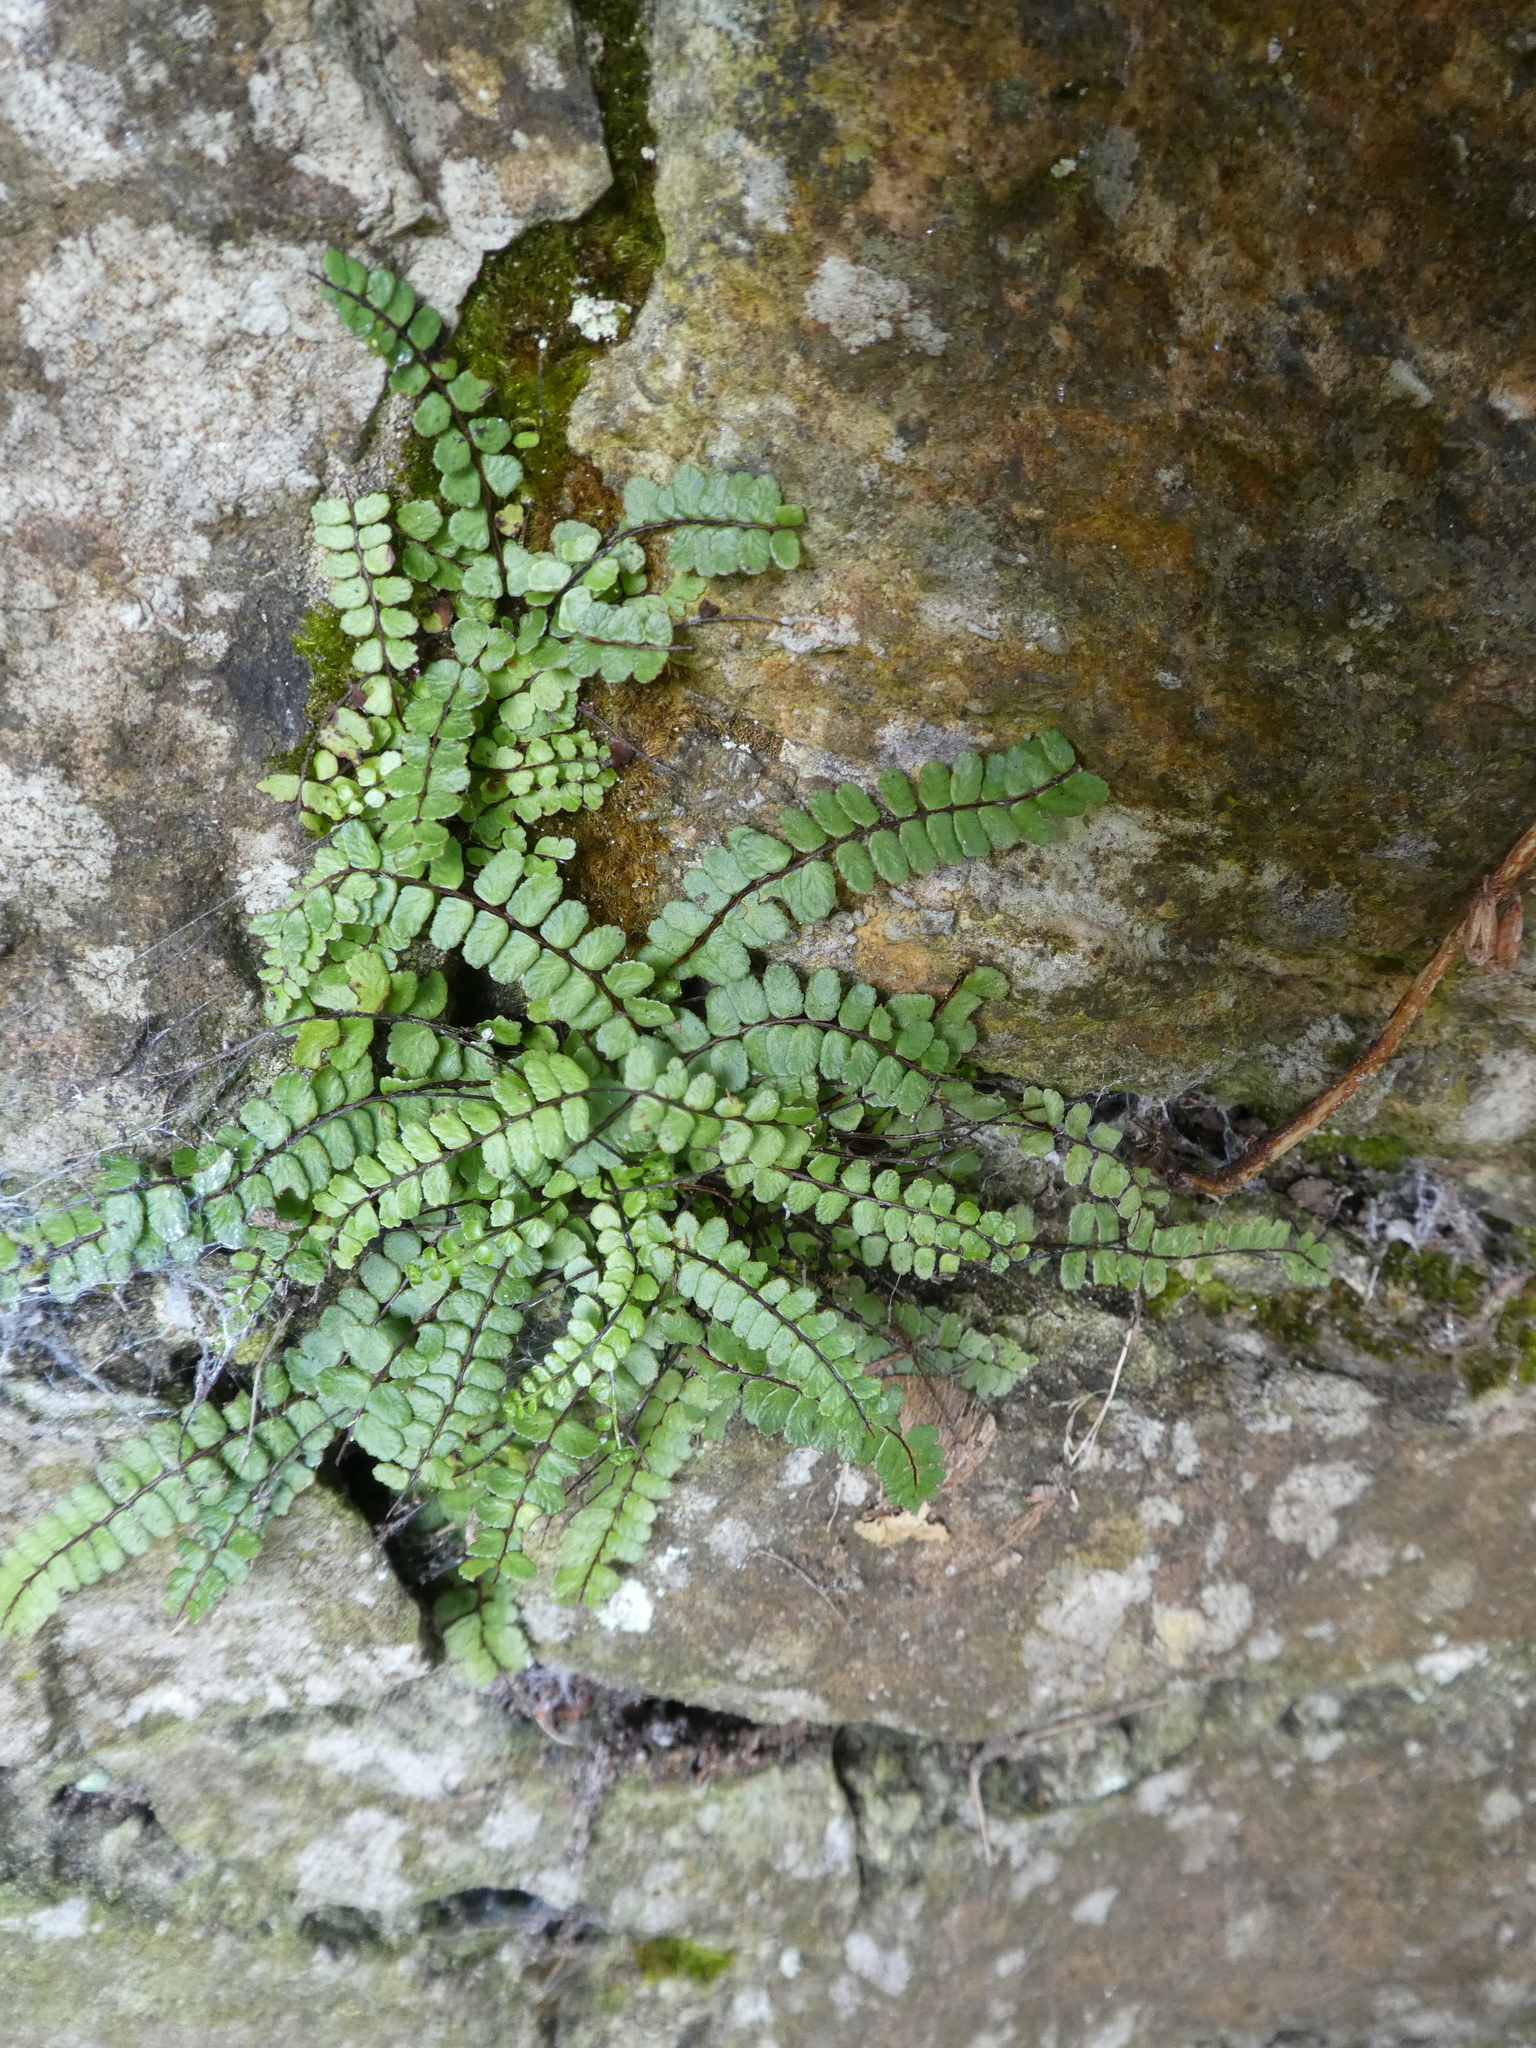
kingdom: Plantae
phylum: Tracheophyta
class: Polypodiopsida
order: Polypodiales
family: Aspleniaceae
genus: Asplenium
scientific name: Asplenium trichomanes
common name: Maidenhair spleenwort
